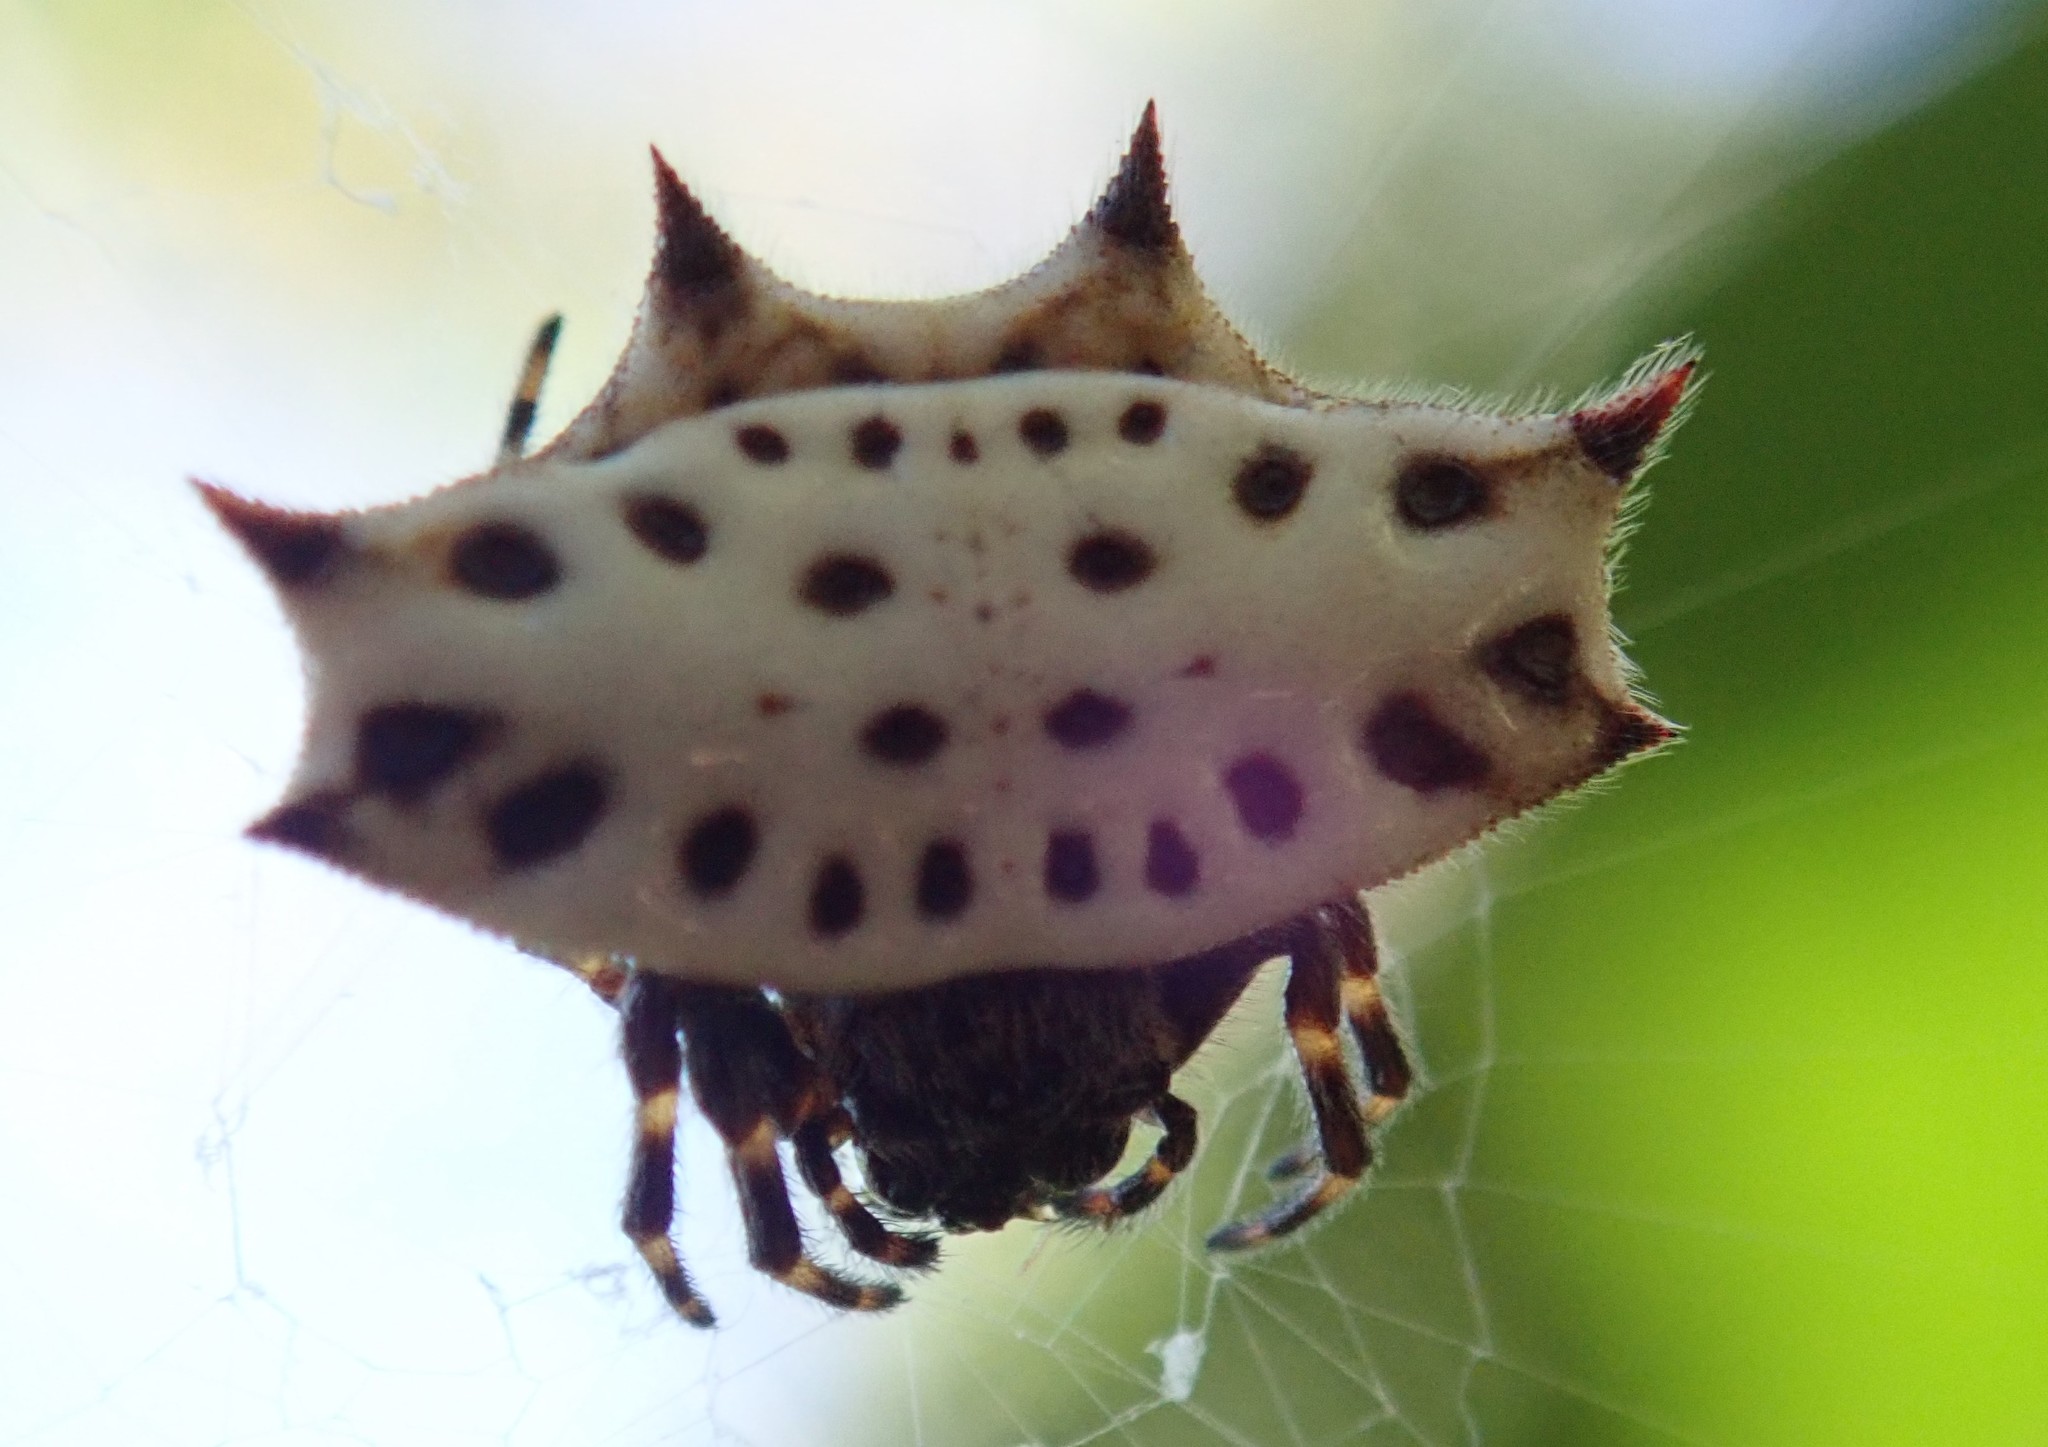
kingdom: Animalia
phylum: Arthropoda
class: Arachnida
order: Araneae
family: Araneidae
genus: Gasteracantha
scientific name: Gasteracantha cancriformis
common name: Orb weavers
